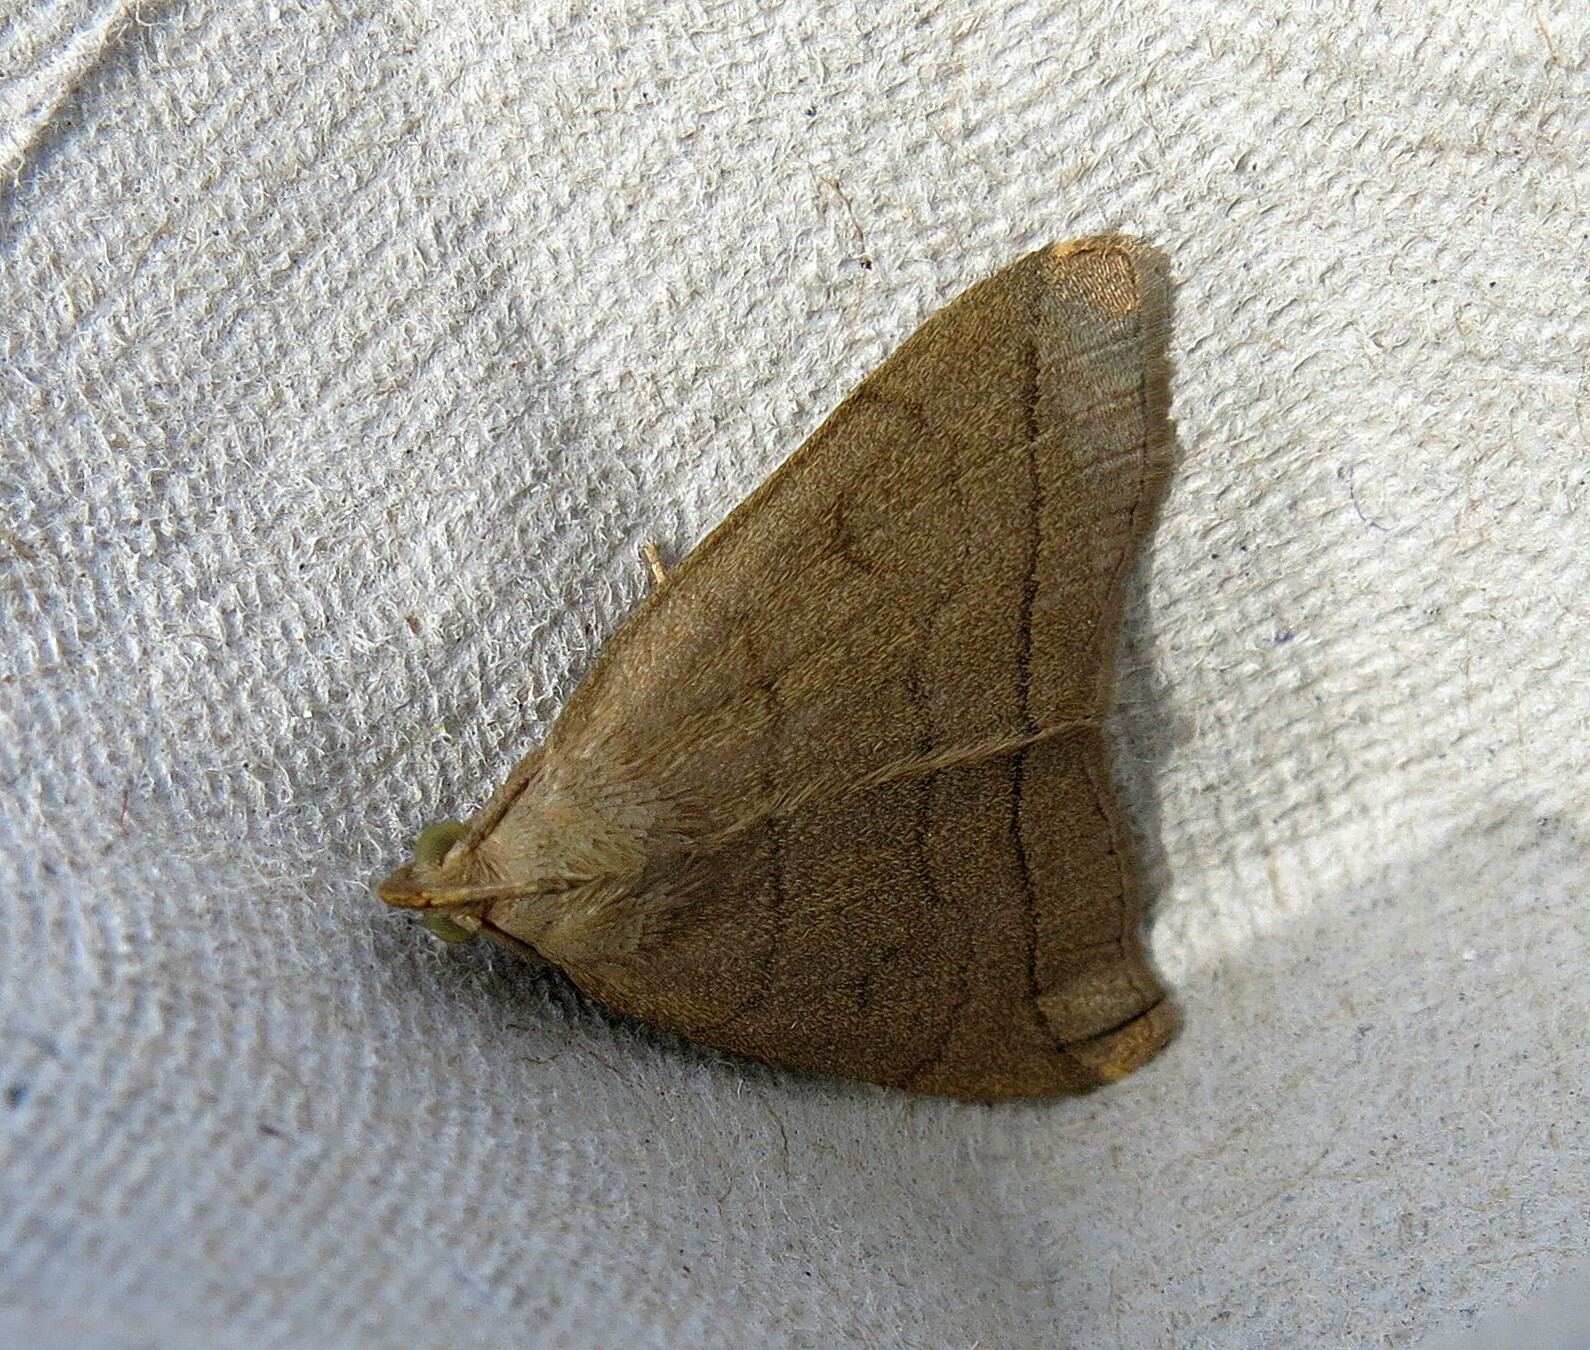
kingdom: Animalia
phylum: Arthropoda
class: Insecta
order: Lepidoptera
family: Erebidae
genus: Herminia
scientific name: Herminia tarsipennalis
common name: Fan-foot
